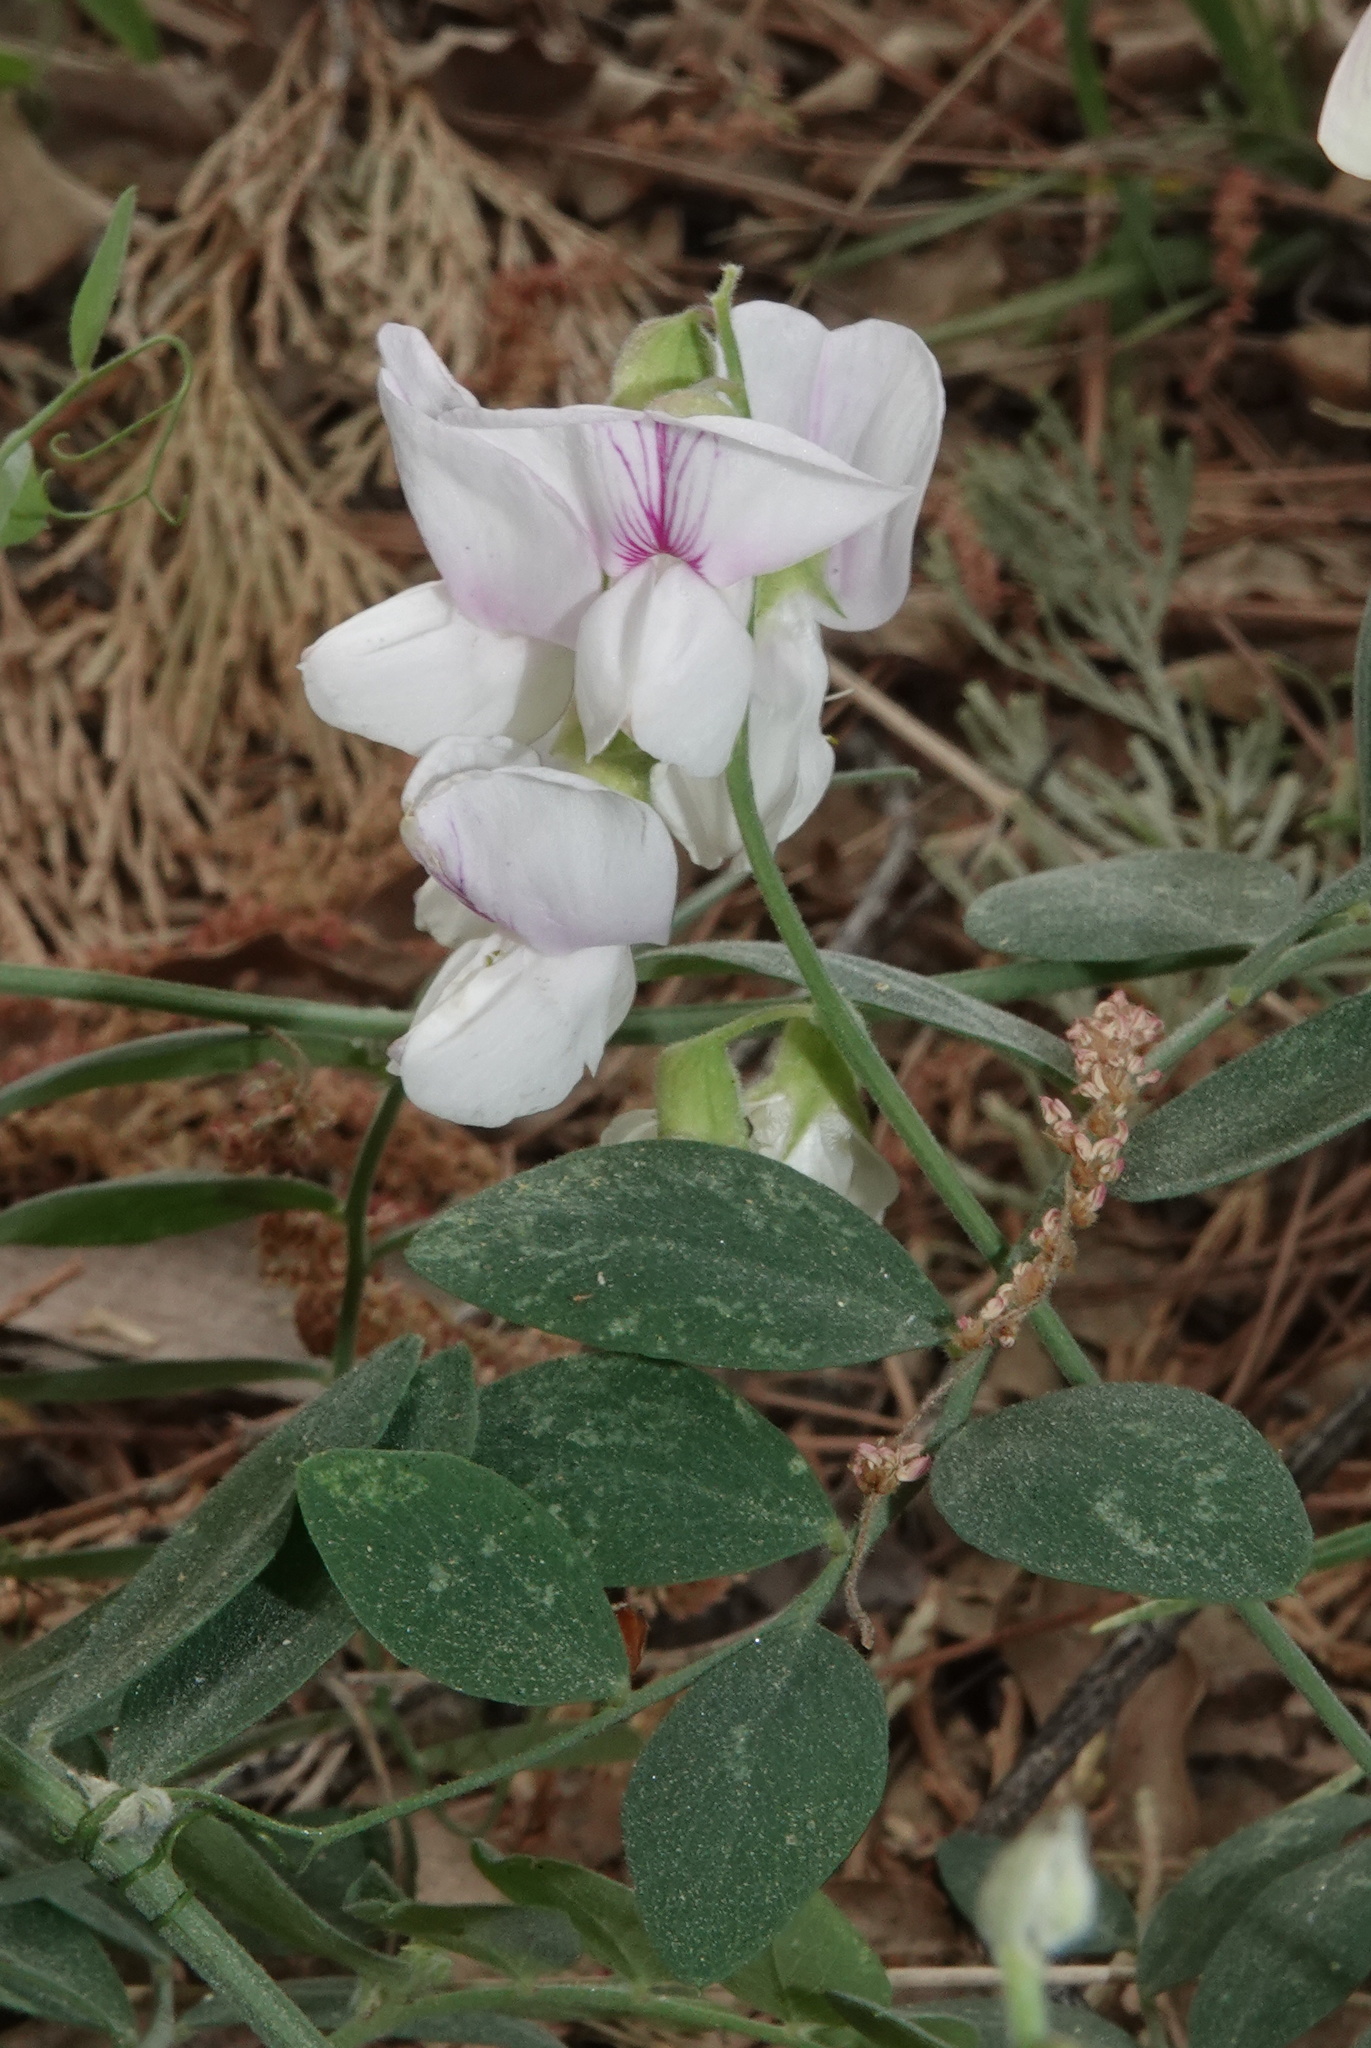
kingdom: Plantae
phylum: Tracheophyta
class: Magnoliopsida
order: Fabales
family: Fabaceae
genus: Lathyrus
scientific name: Lathyrus vestitus
